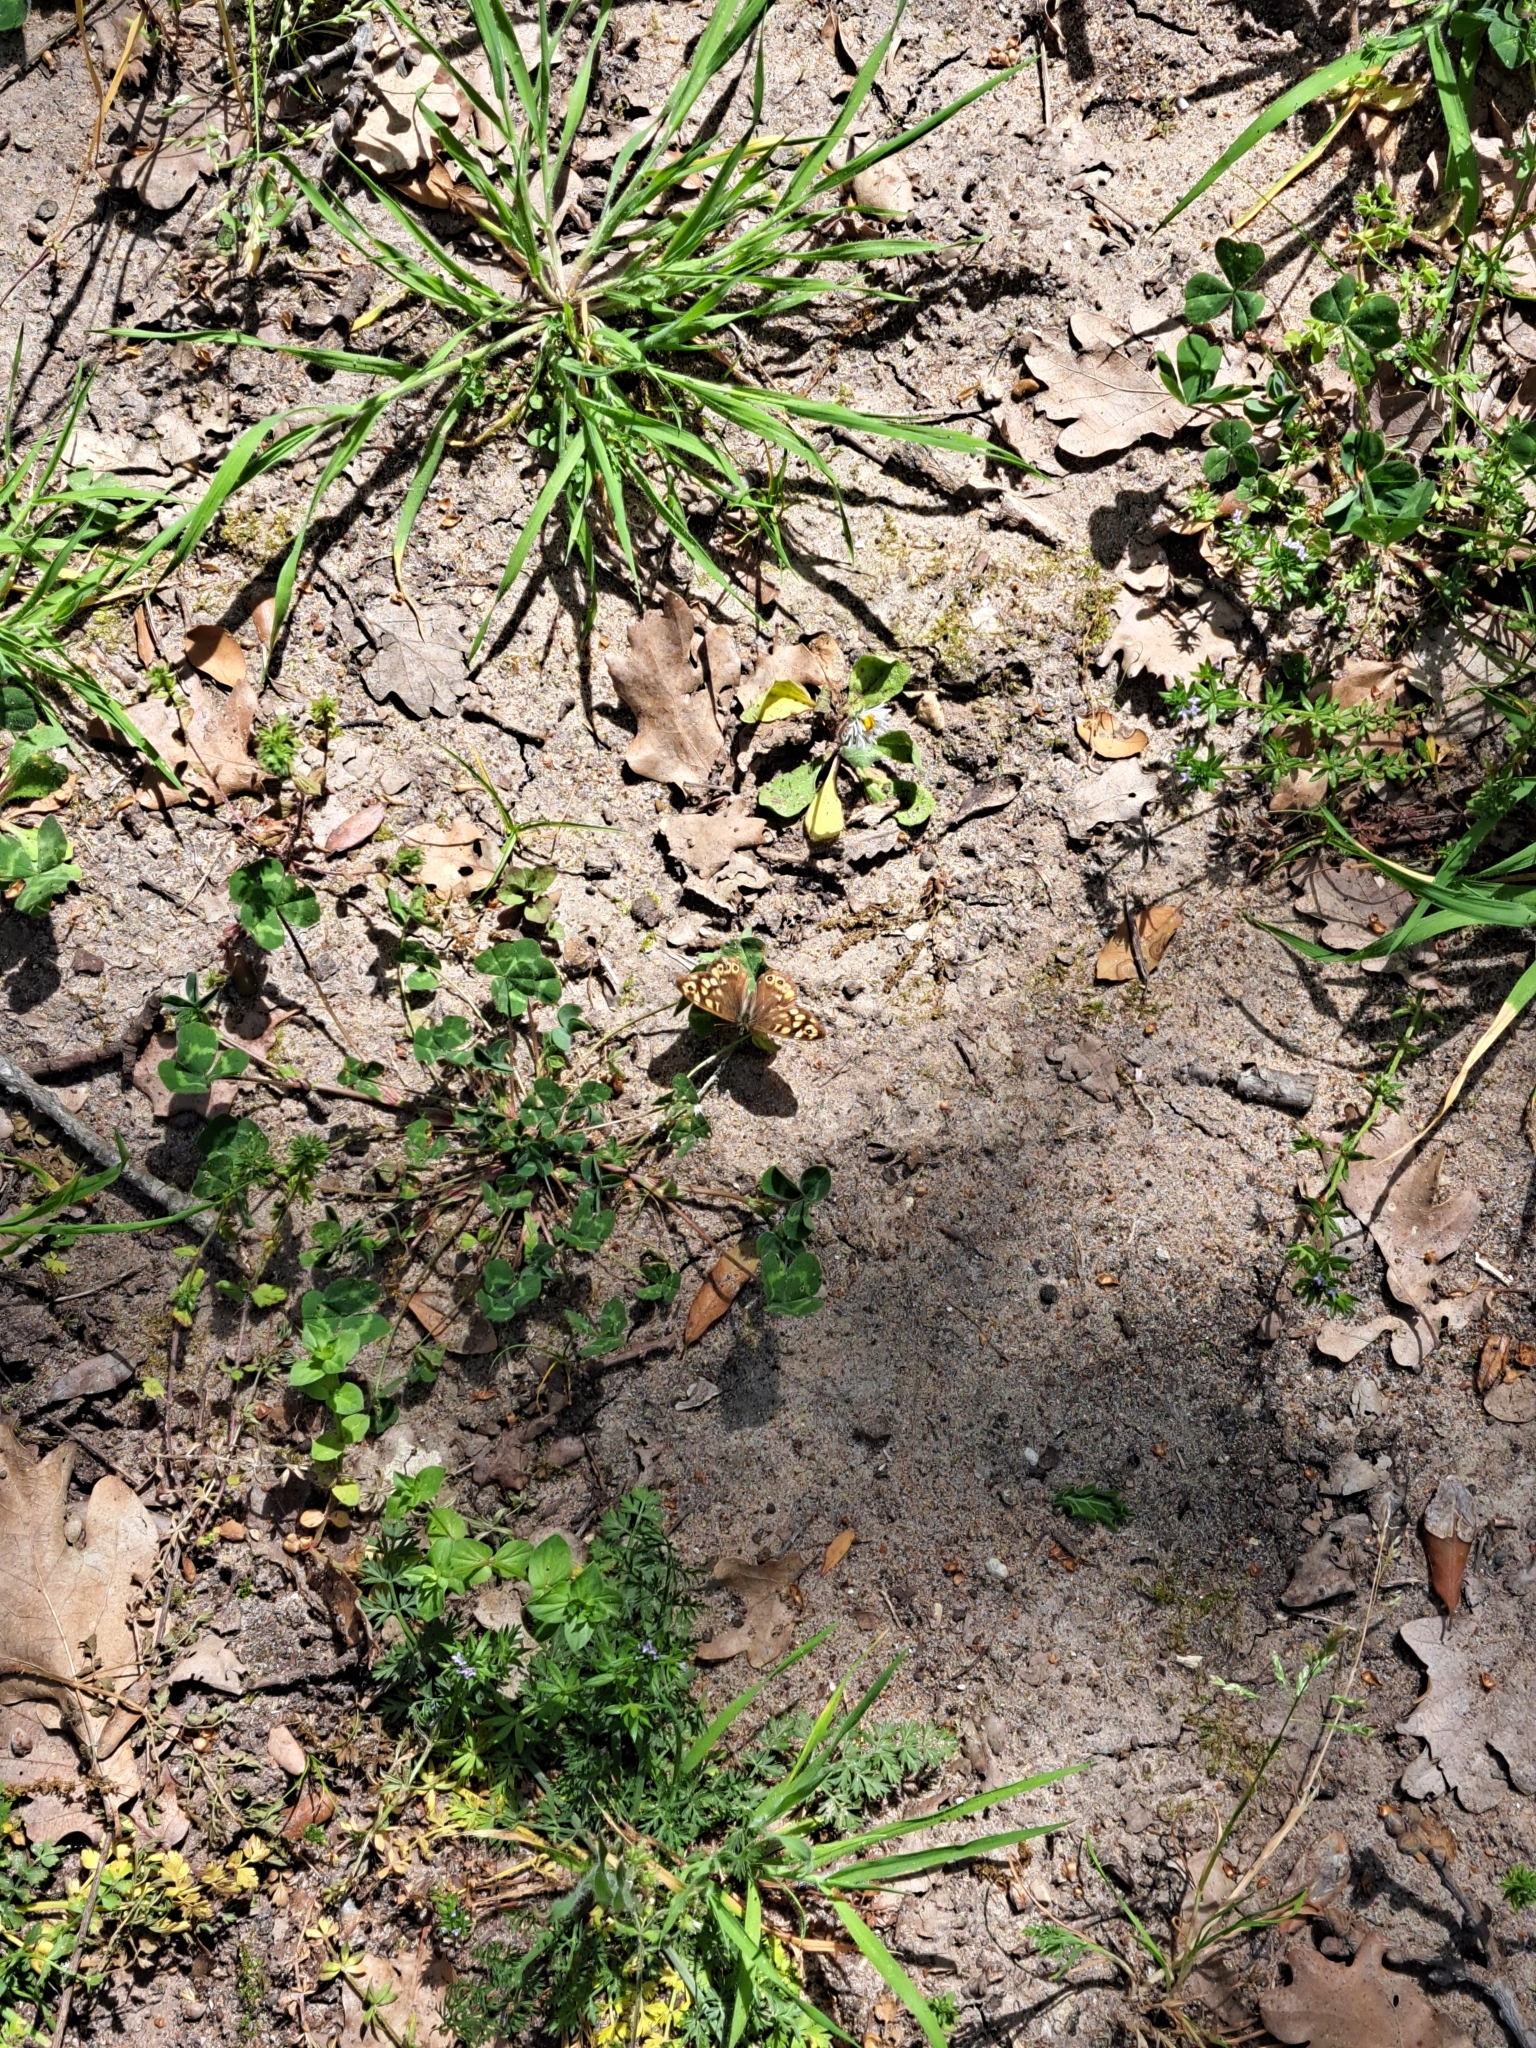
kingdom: Animalia
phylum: Arthropoda
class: Insecta
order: Lepidoptera
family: Nymphalidae
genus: Pararge
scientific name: Pararge aegeria
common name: Speckled wood
